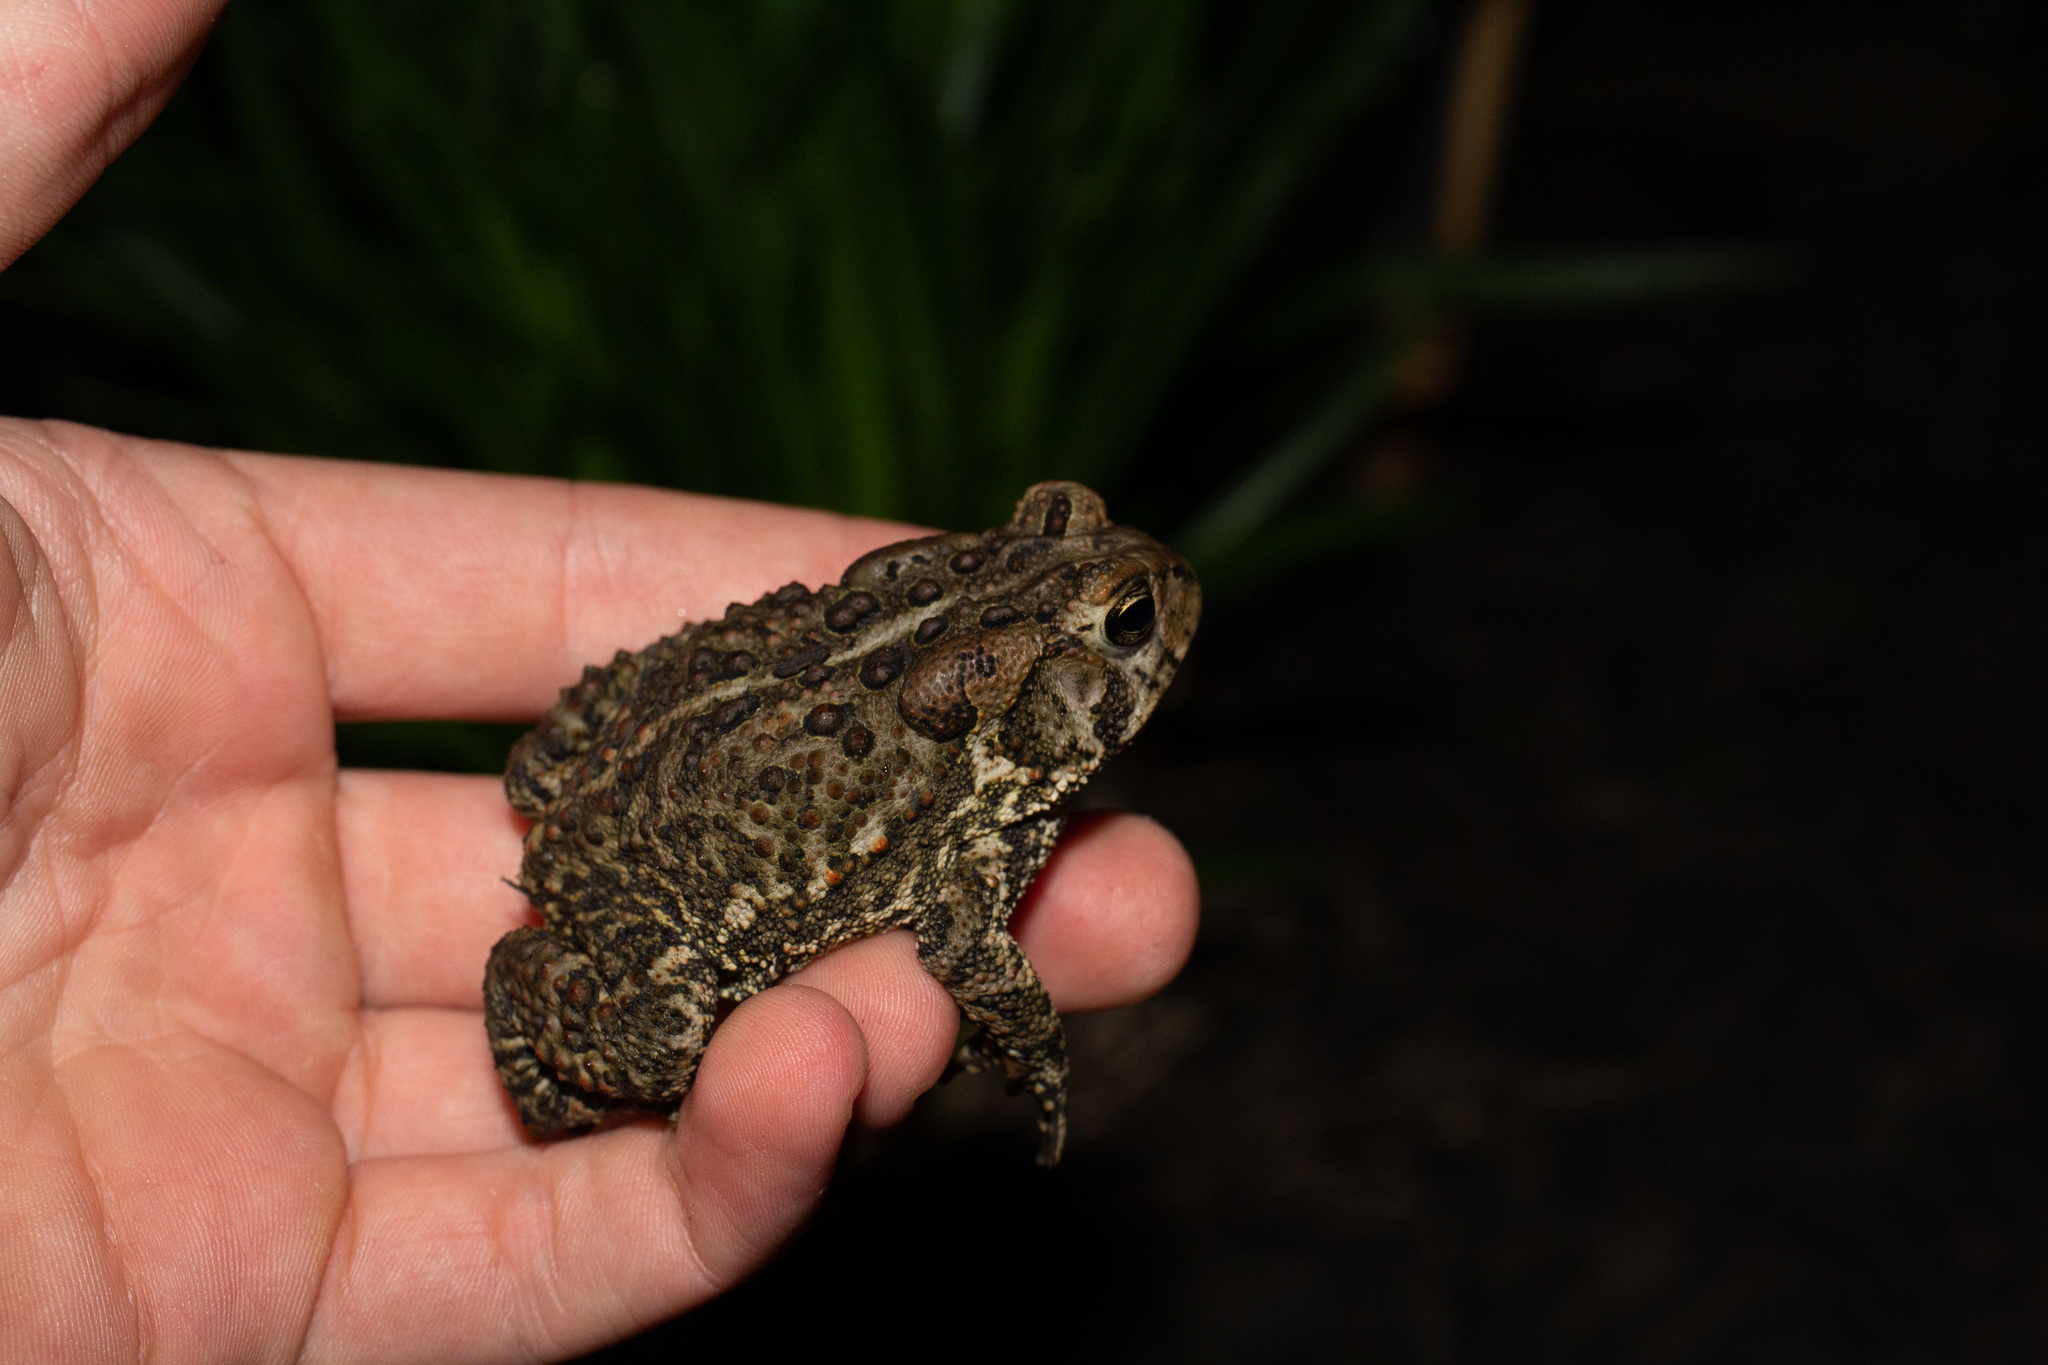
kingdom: Animalia
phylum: Chordata
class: Amphibia
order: Anura
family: Bufonidae
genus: Anaxyrus
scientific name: Anaxyrus americanus
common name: American toad
